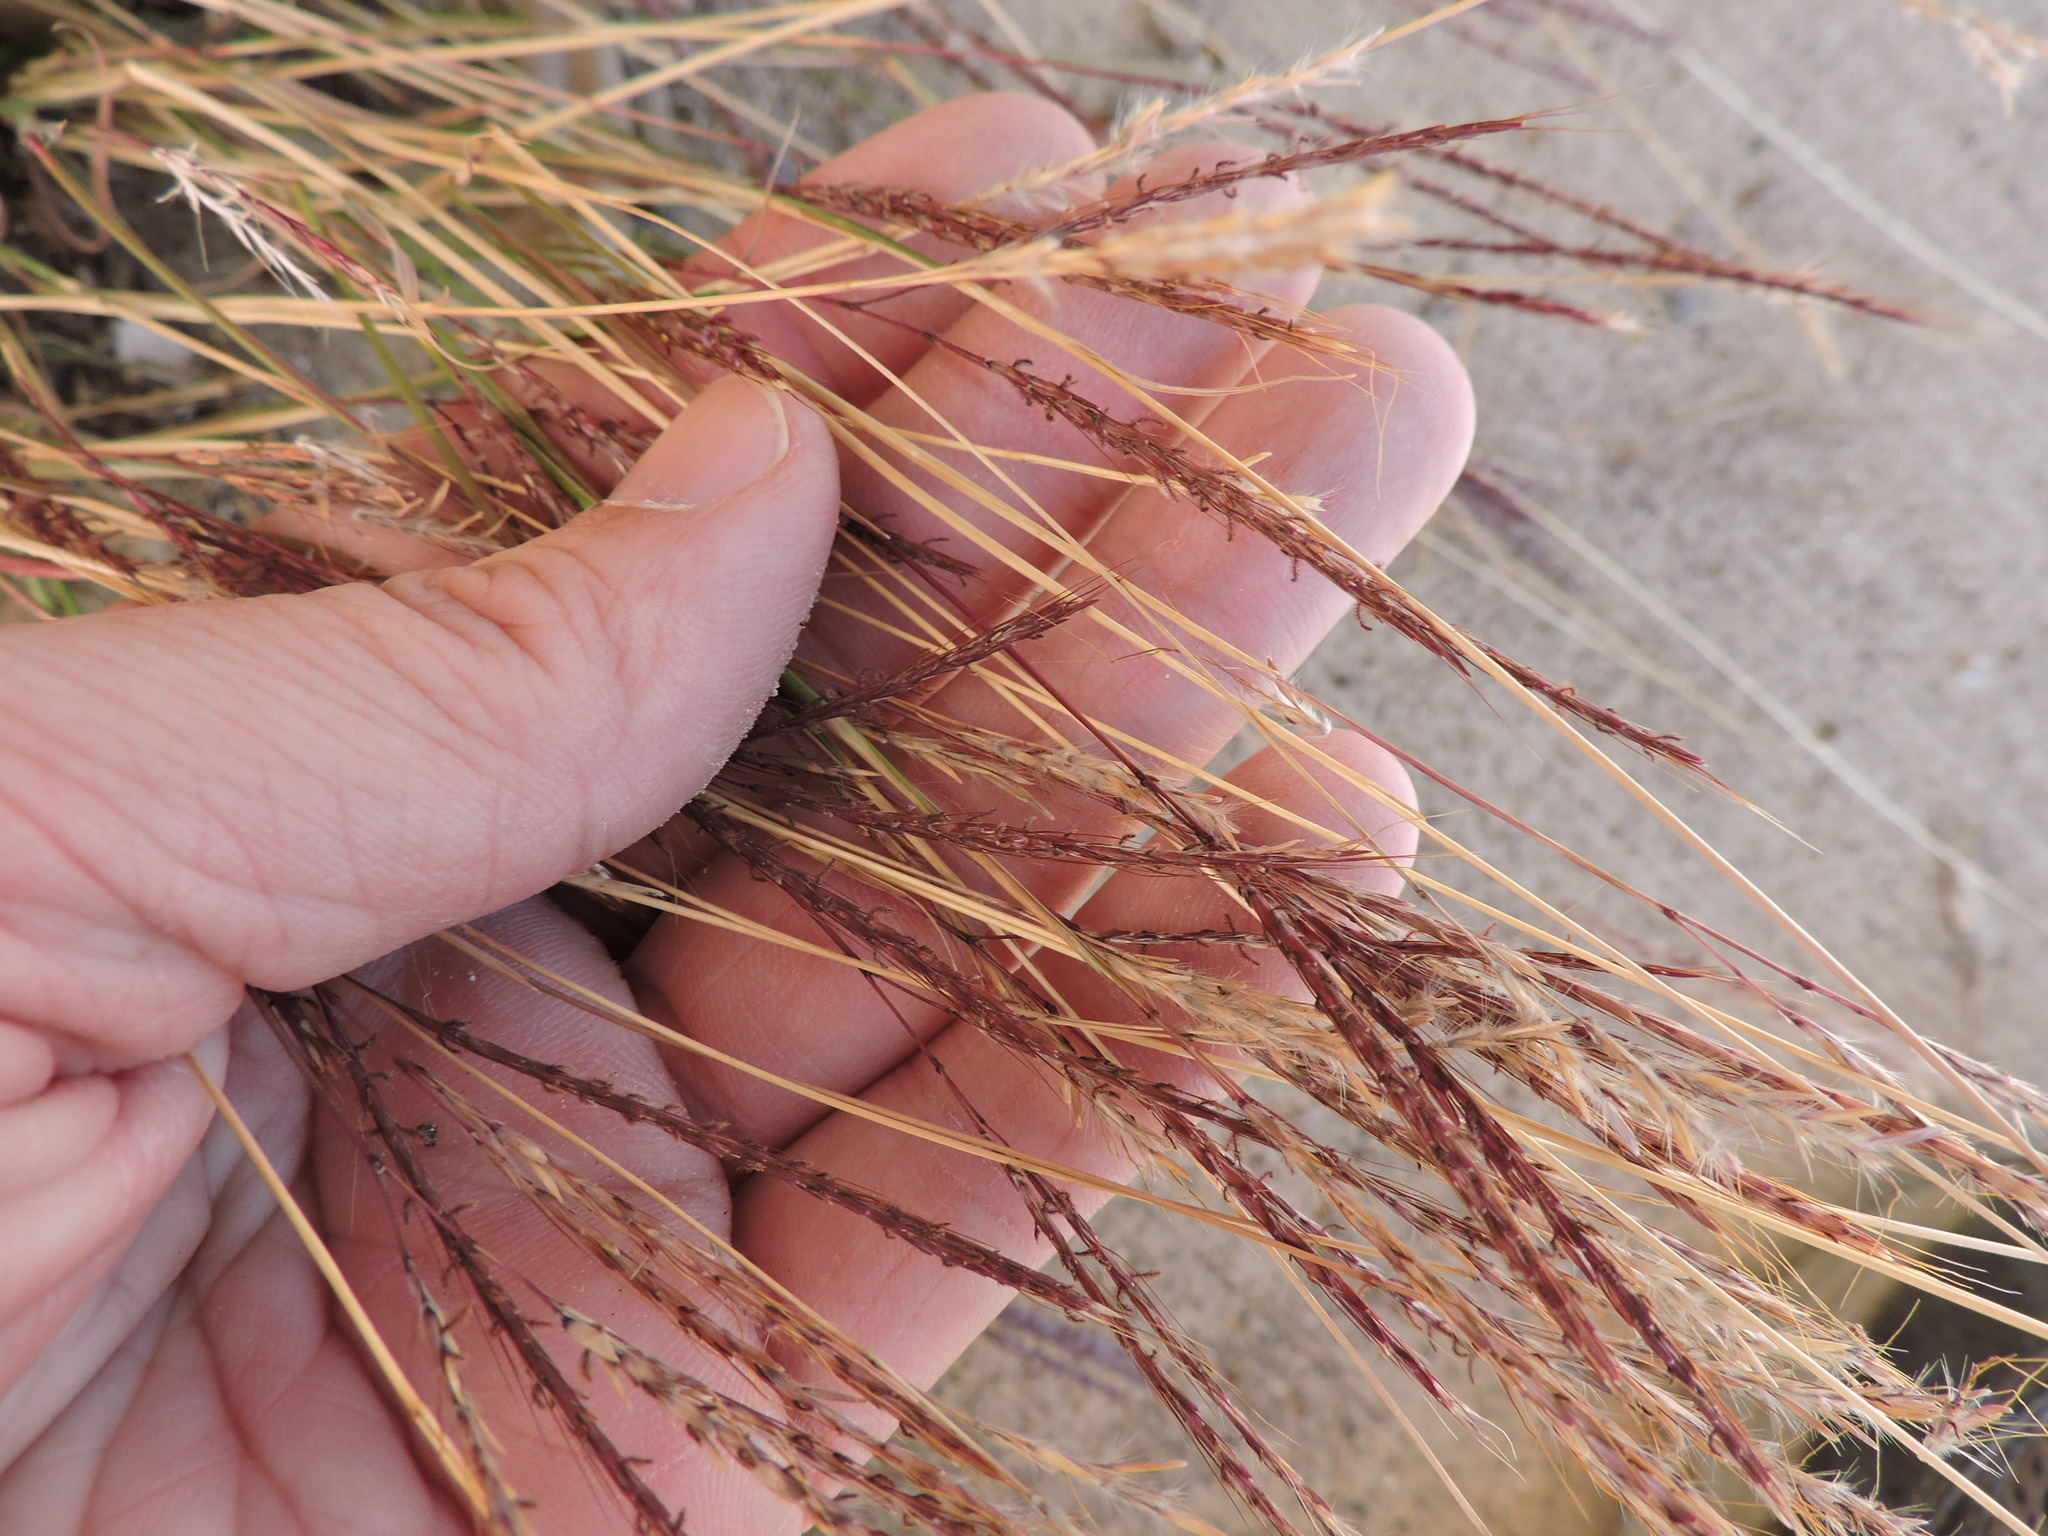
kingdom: Plantae
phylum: Tracheophyta
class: Liliopsida
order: Poales
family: Poaceae
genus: Bothriochloa
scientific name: Bothriochloa ischaemum
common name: Yellow bluestem
